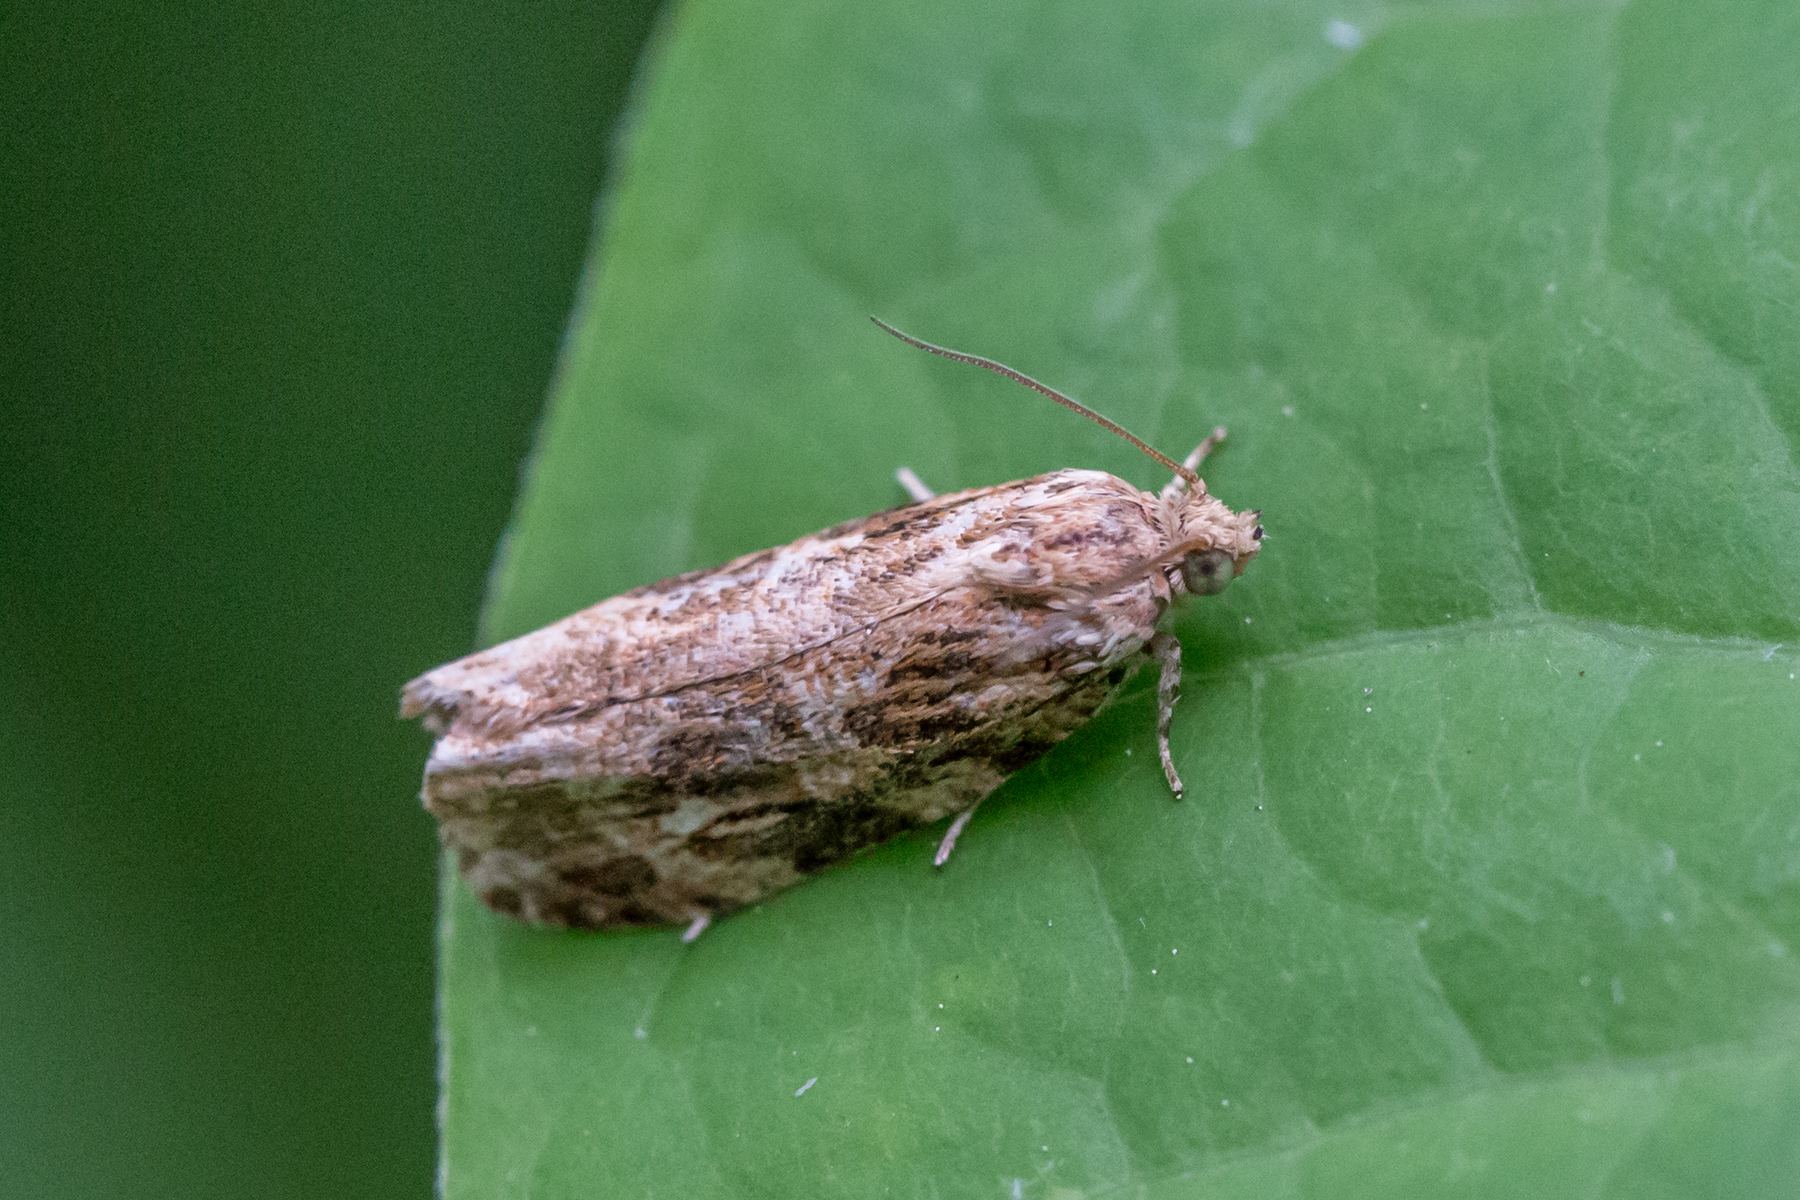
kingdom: Animalia
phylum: Arthropoda
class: Insecta
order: Lepidoptera
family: Tortricidae
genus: Phaecasiophora
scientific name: Phaecasiophora confixana
